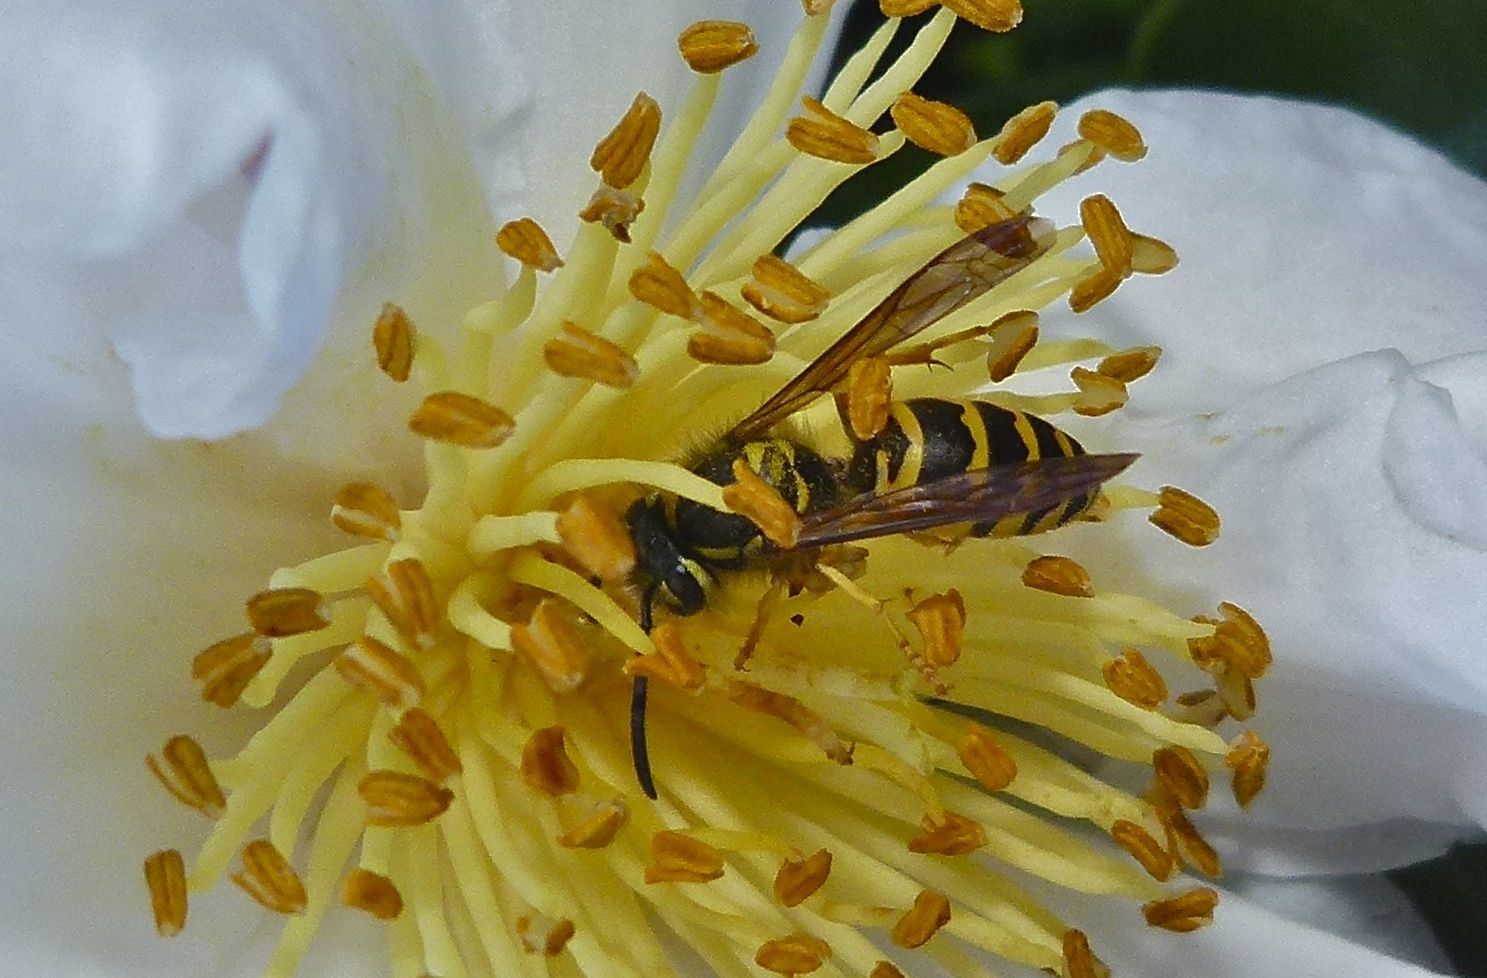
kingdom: Animalia
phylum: Arthropoda
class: Insecta
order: Hymenoptera
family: Vespidae
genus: Vespula
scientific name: Vespula maculifrons
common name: Eastern yellowjacket
